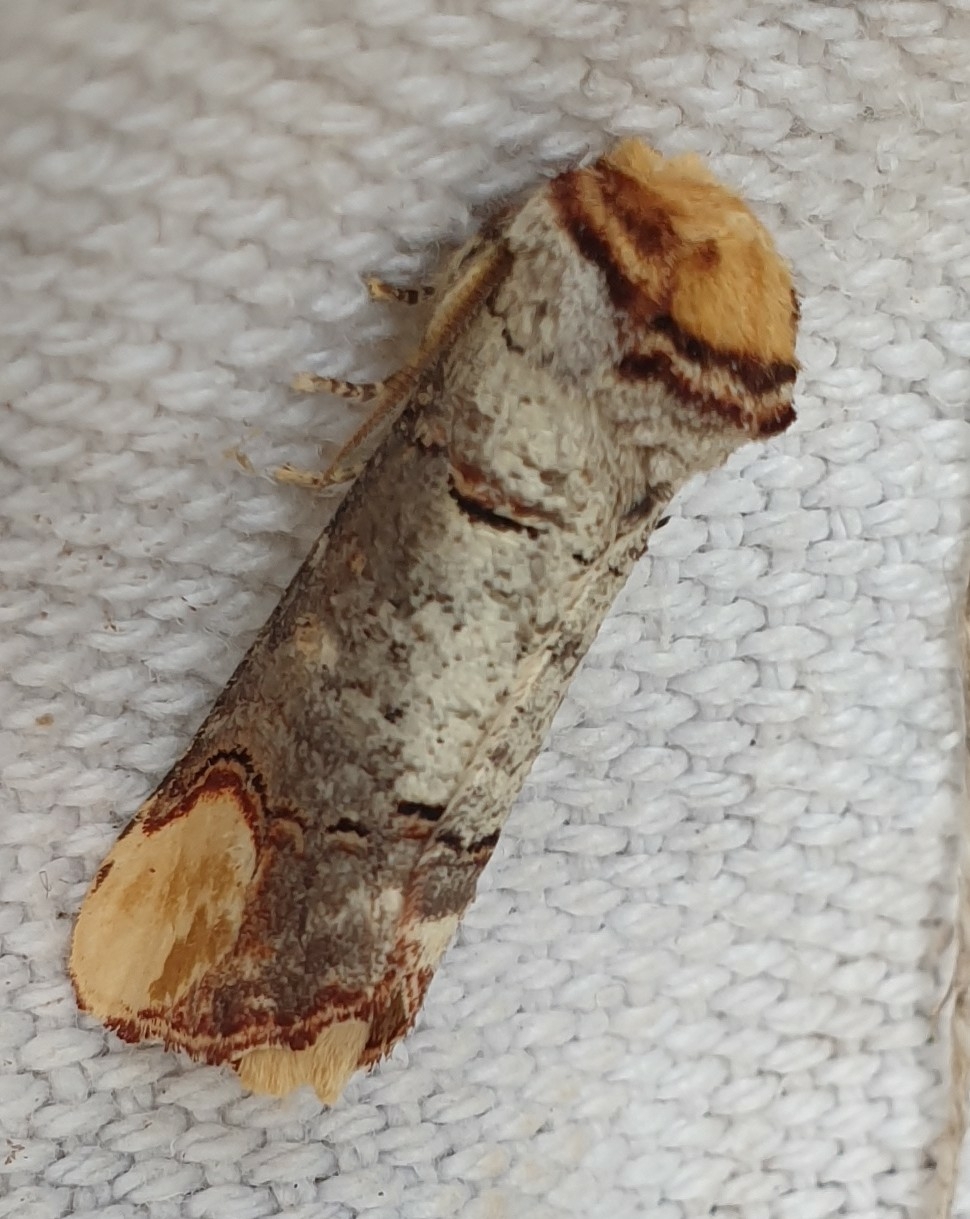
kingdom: Animalia
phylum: Arthropoda
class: Insecta
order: Lepidoptera
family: Notodontidae
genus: Phalera
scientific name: Phalera bucephala
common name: Buff-tip
